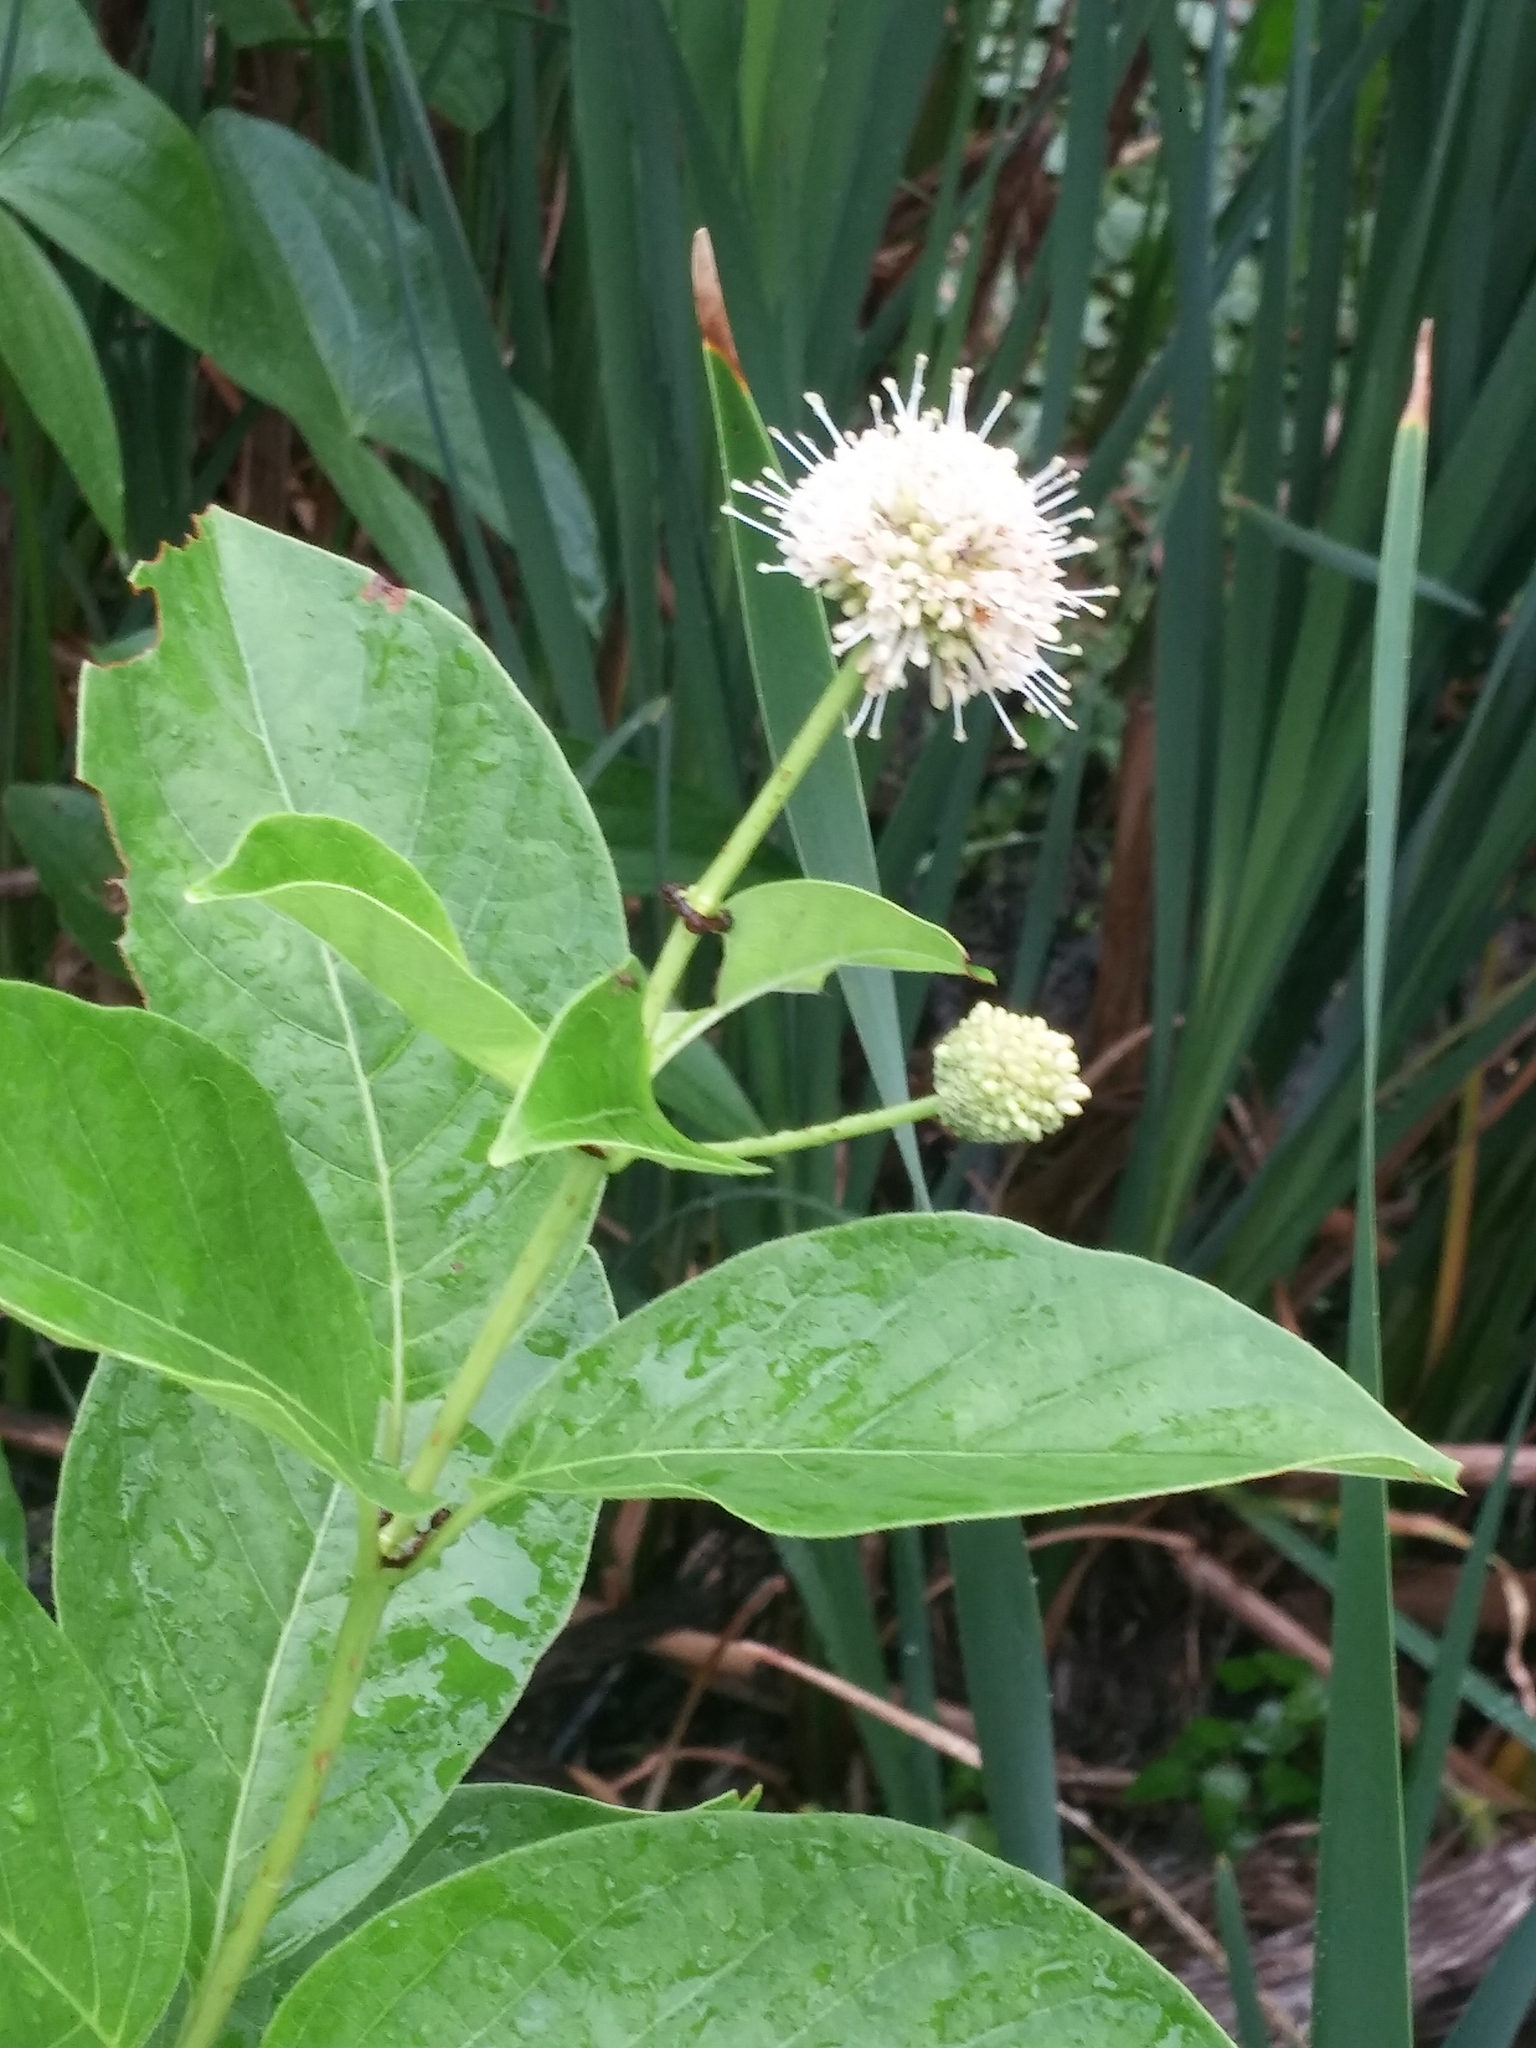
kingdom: Plantae
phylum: Tracheophyta
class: Magnoliopsida
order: Gentianales
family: Rubiaceae
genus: Cephalanthus
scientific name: Cephalanthus occidentalis
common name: Button-willow
